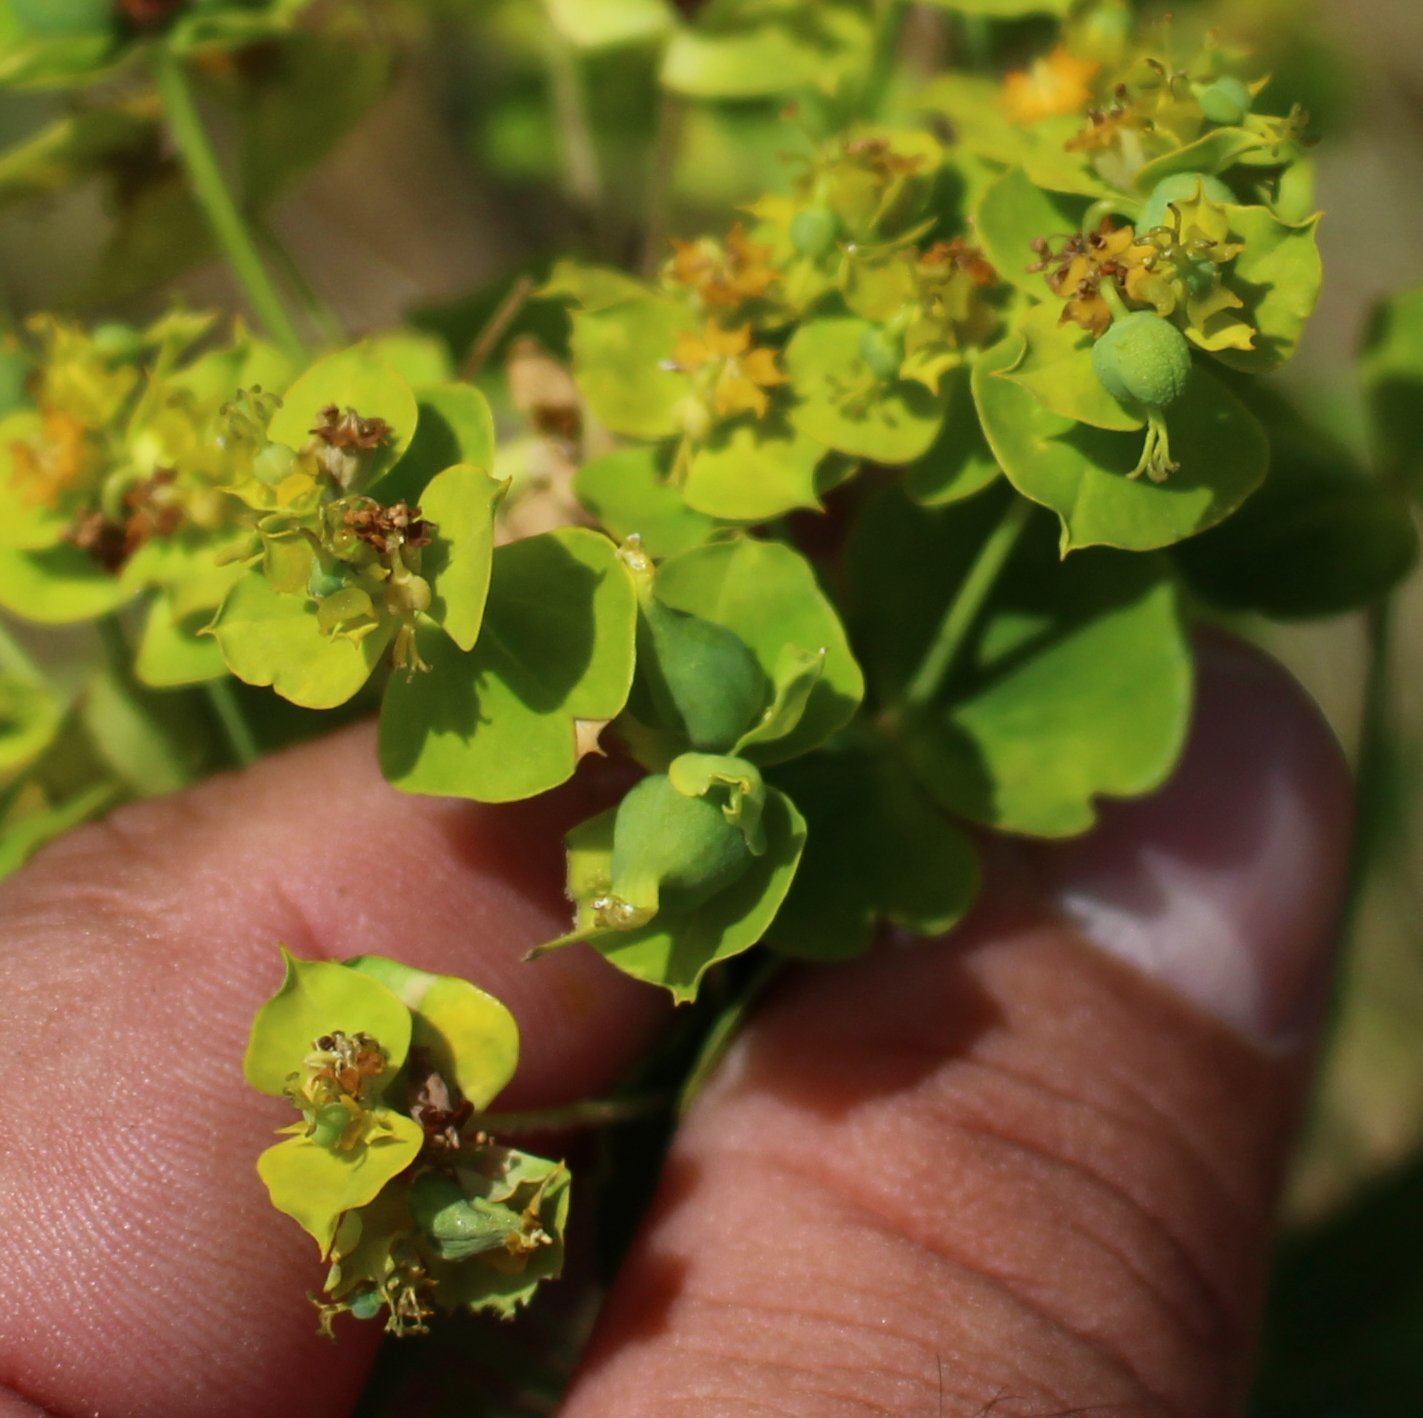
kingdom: Plantae
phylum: Tracheophyta
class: Magnoliopsida
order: Malpighiales
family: Euphorbiaceae
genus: Euphorbia
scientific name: Euphorbia virgata
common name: Leafy spurge
